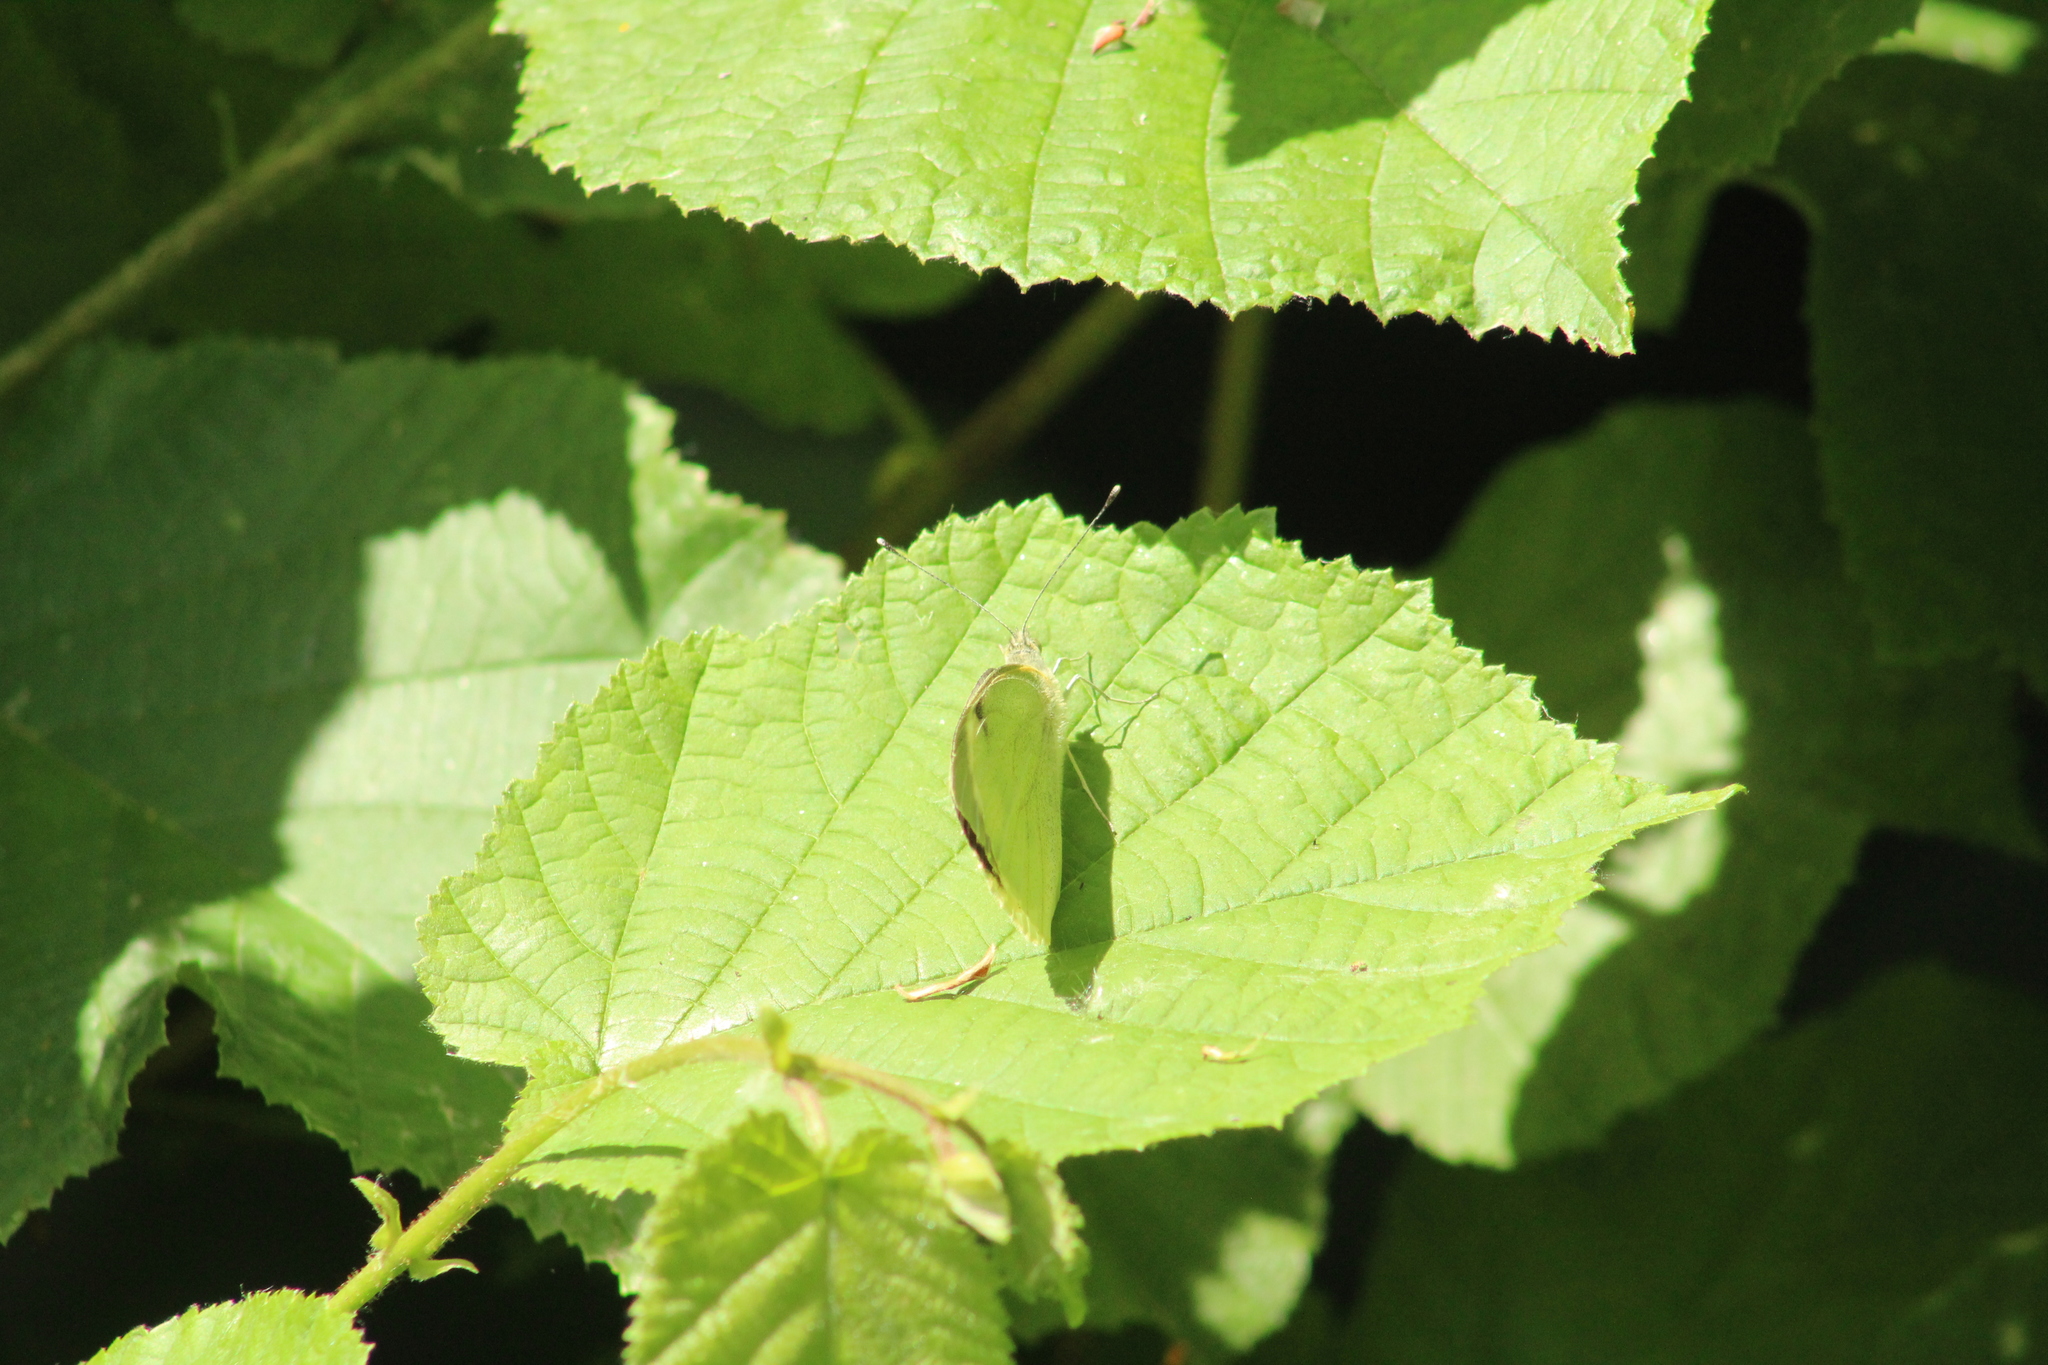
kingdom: Animalia
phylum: Arthropoda
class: Insecta
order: Lepidoptera
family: Pieridae
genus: Pieris
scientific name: Pieris brassicae
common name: Large white
